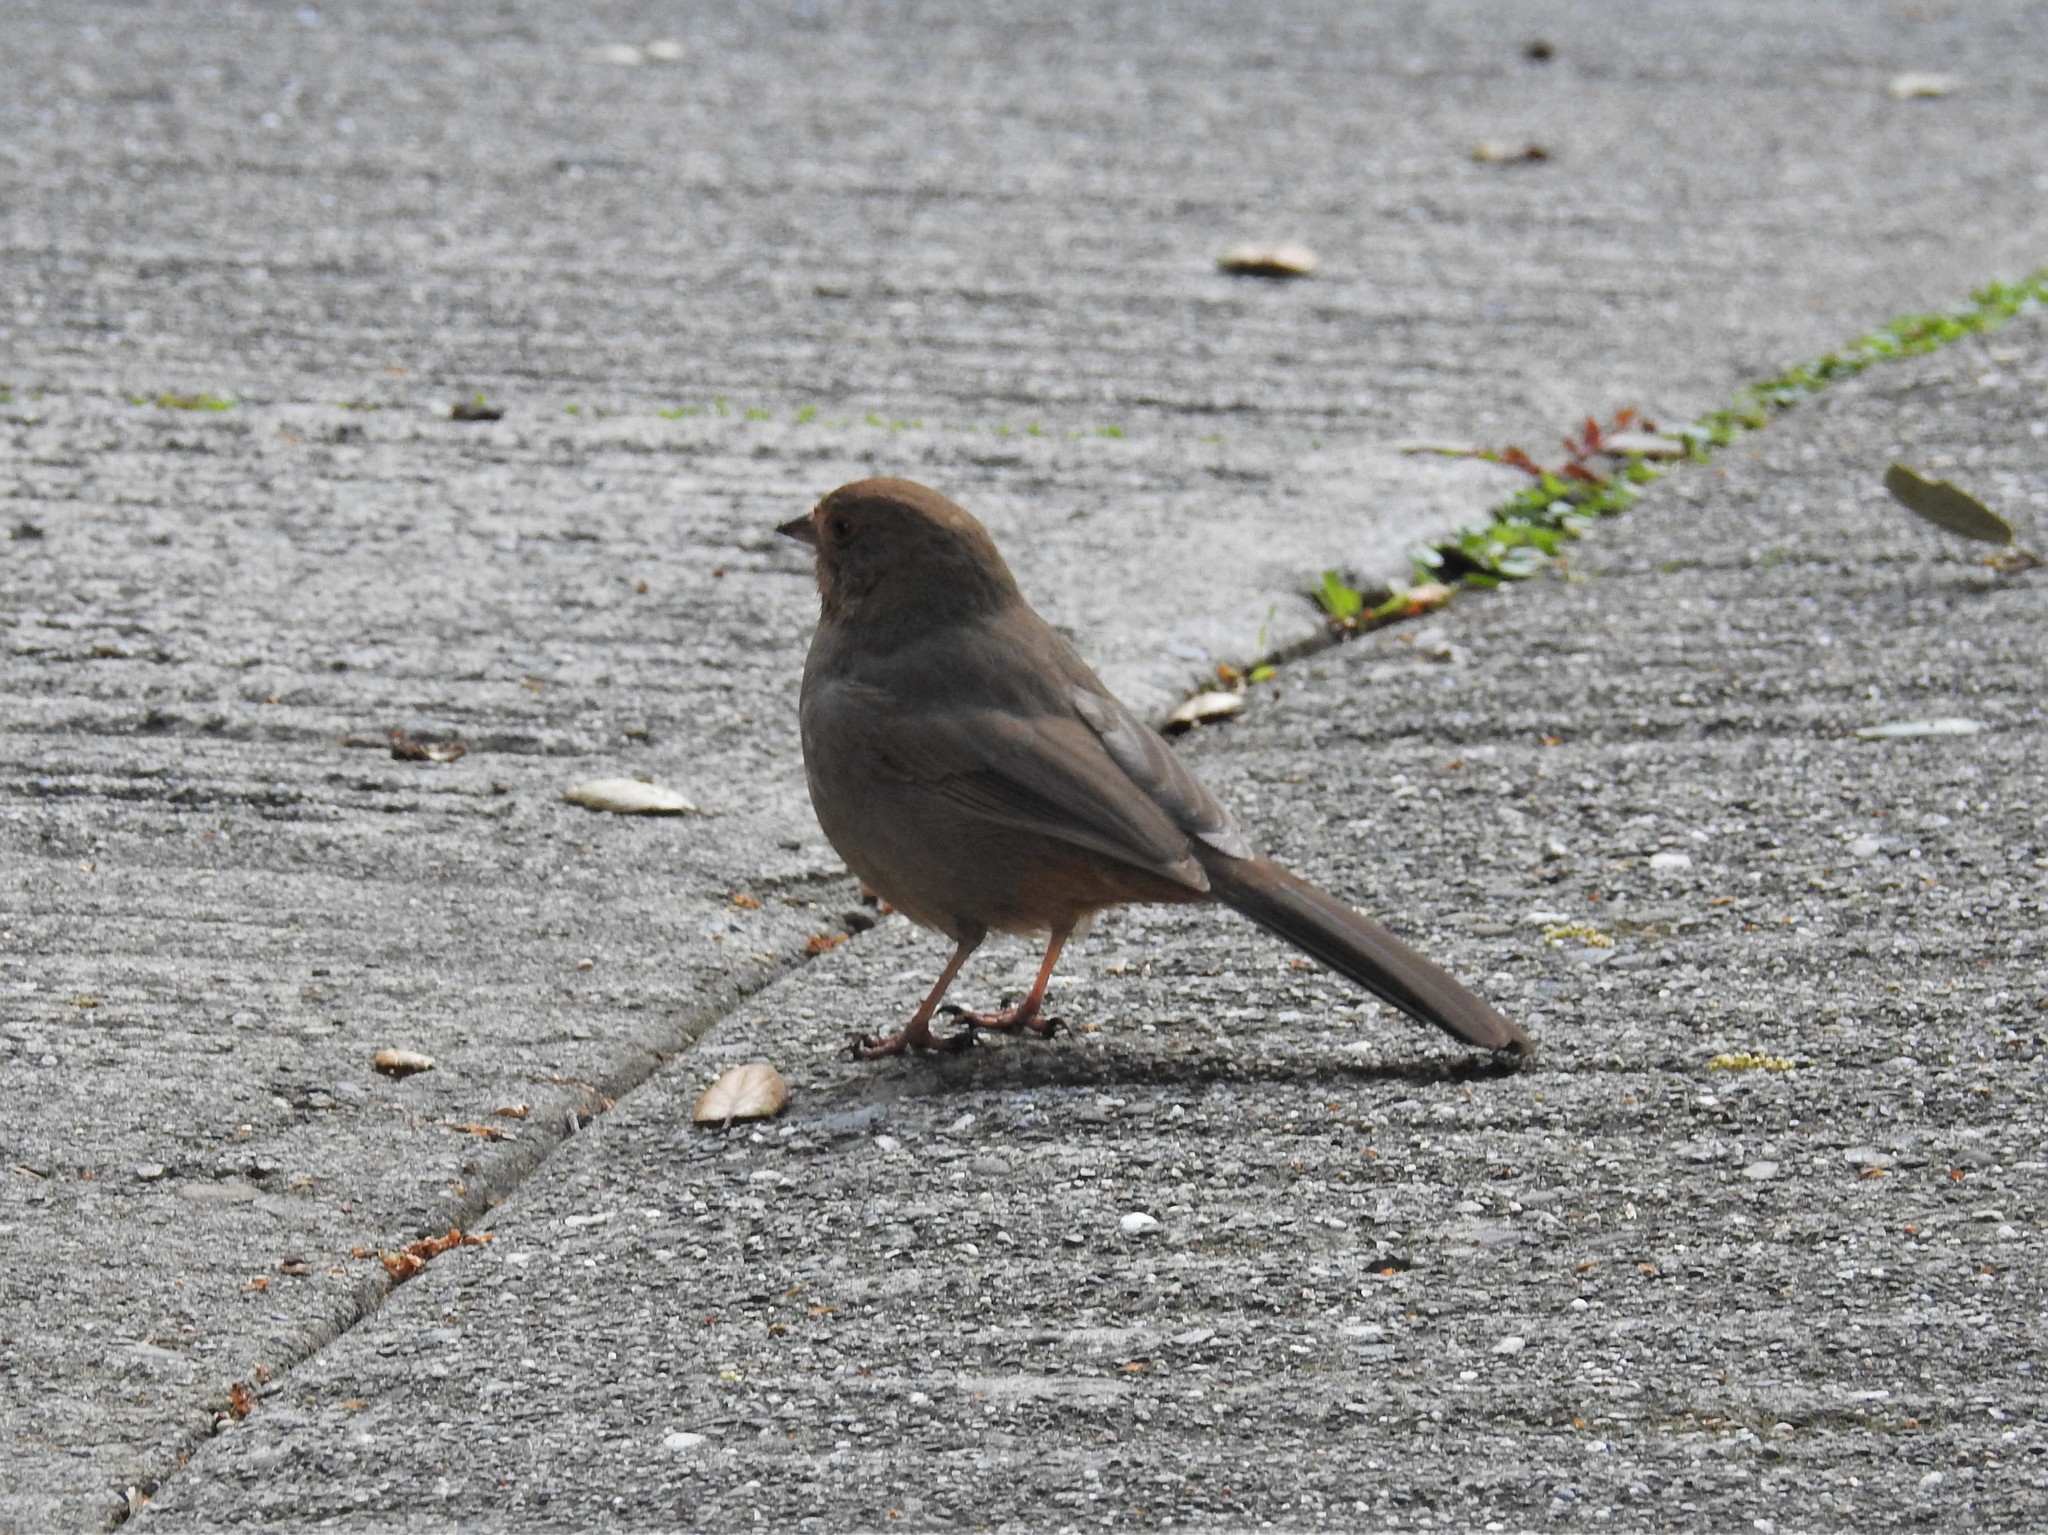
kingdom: Animalia
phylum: Chordata
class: Aves
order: Passeriformes
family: Passerellidae
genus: Melozone
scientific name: Melozone crissalis
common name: California towhee
